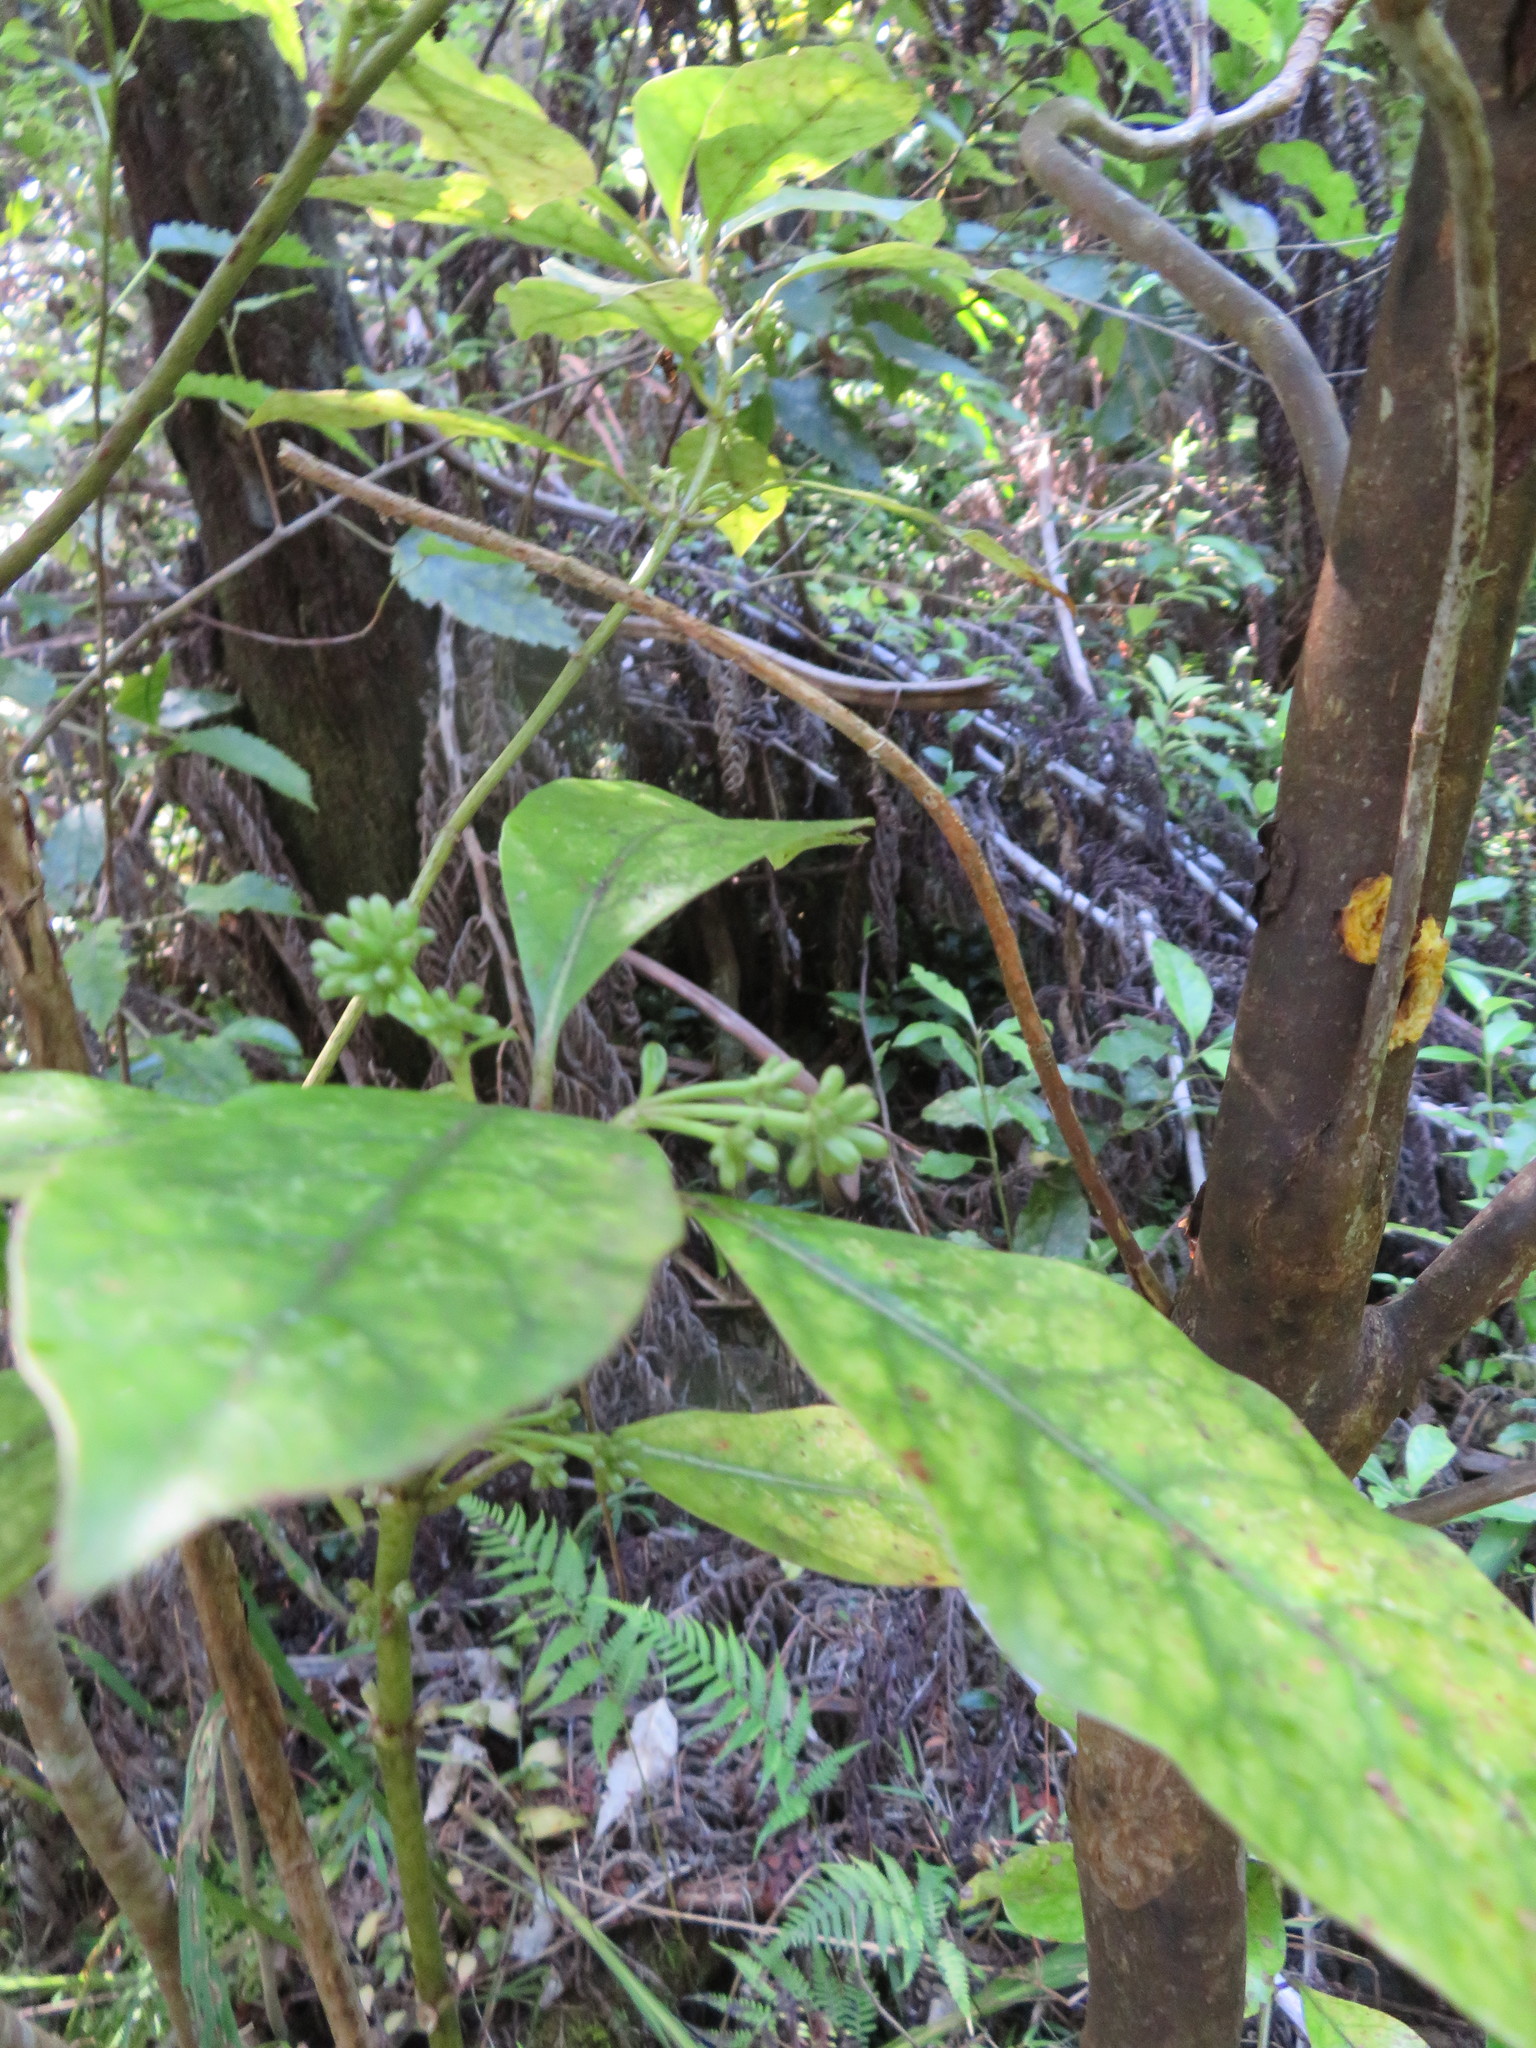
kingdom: Plantae
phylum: Tracheophyta
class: Magnoliopsida
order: Gentianales
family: Rubiaceae
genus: Coprosma
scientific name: Coprosma autumnalis
